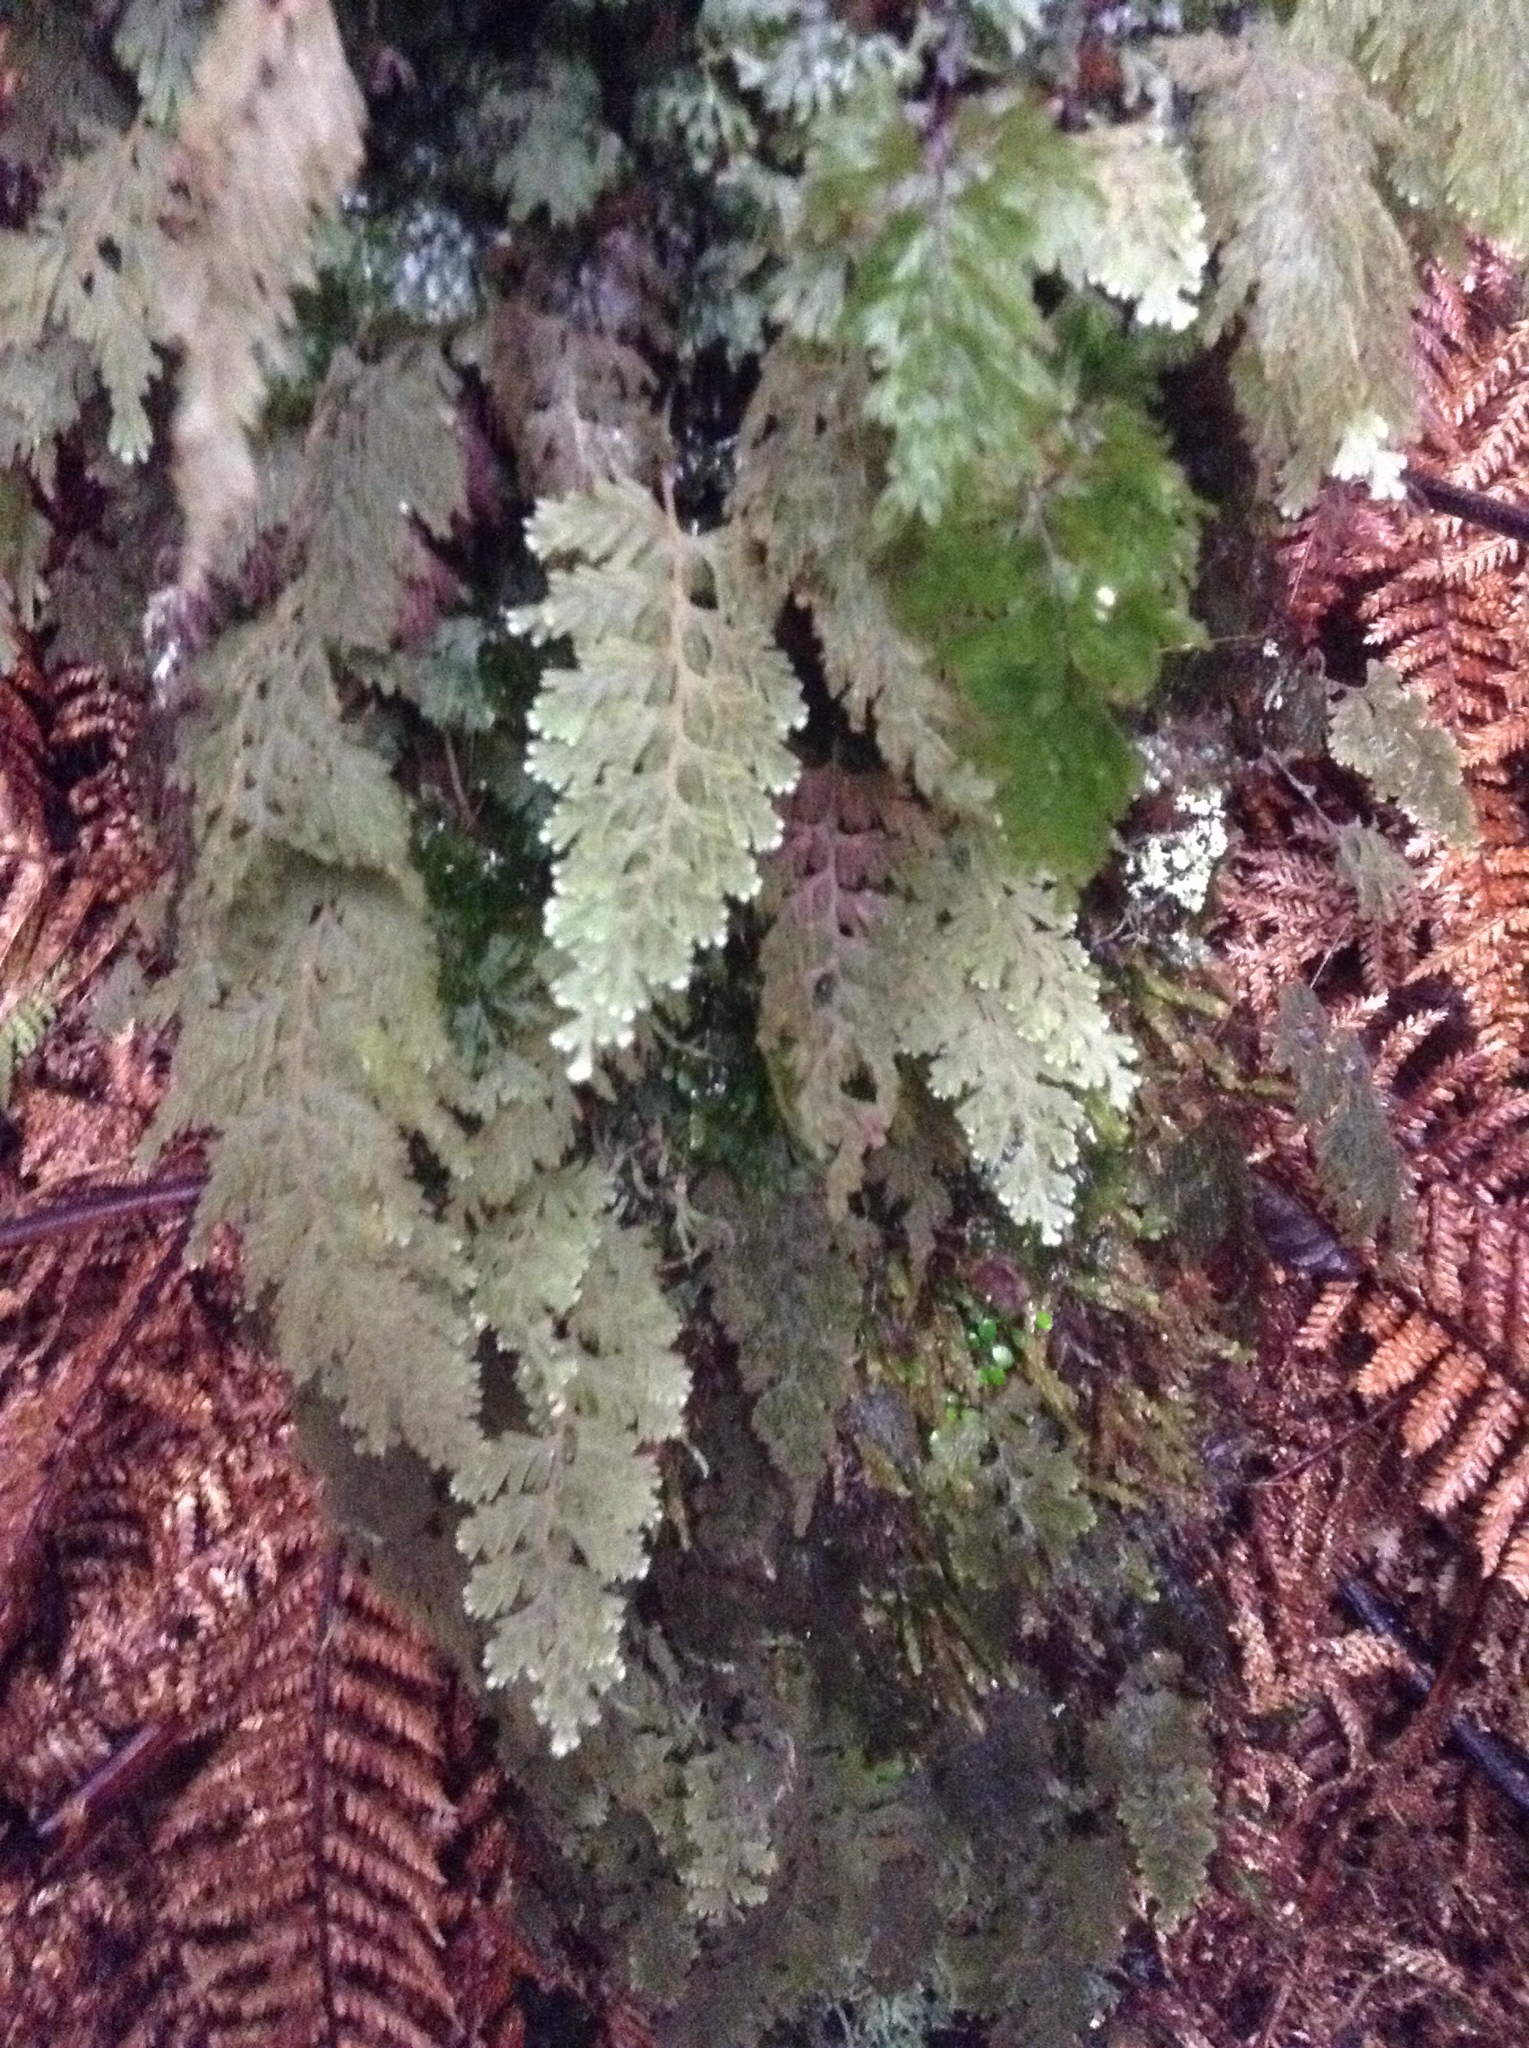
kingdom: Plantae
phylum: Tracheophyta
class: Polypodiopsida
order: Hymenophyllales
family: Hymenophyllaceae
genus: Hymenophyllum
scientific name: Hymenophyllum frankliniae
